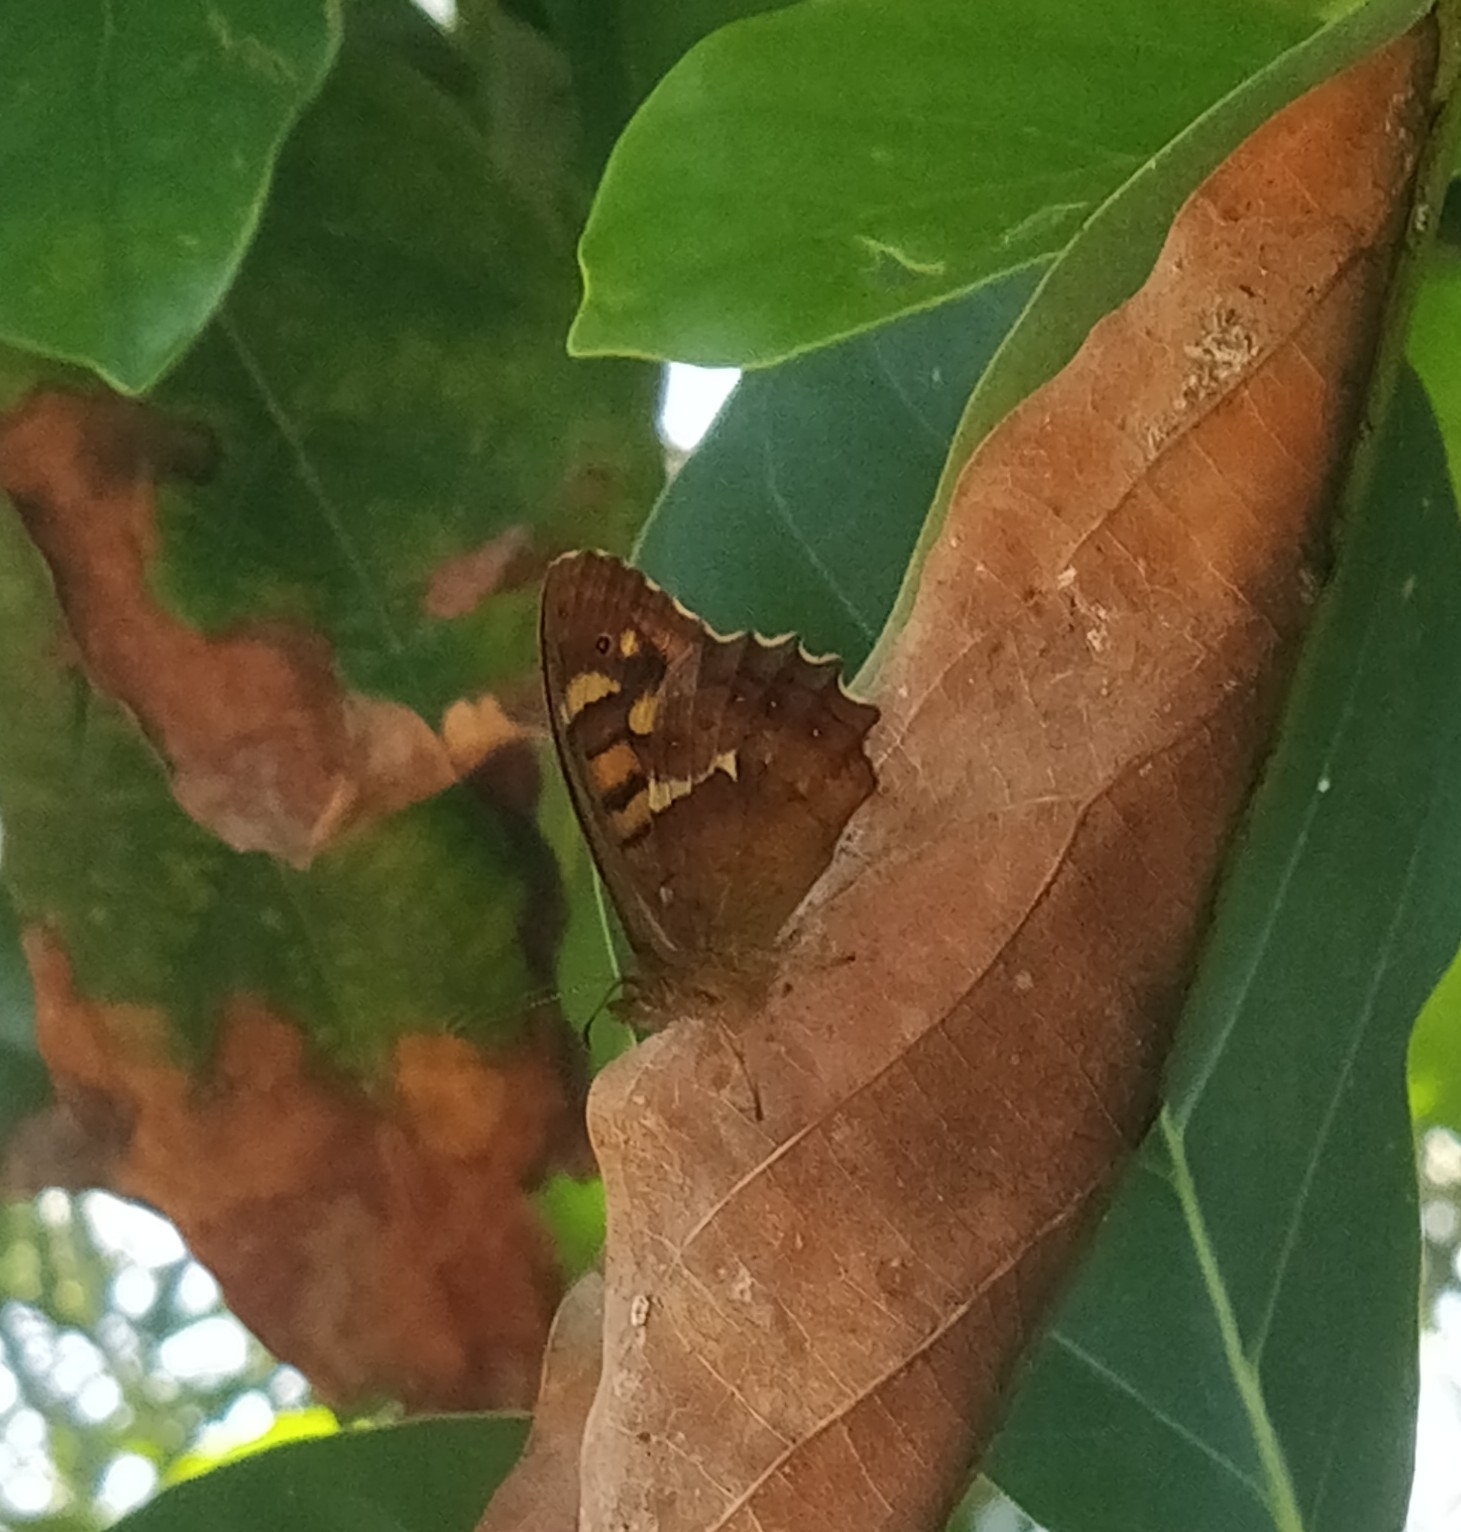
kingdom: Animalia
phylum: Arthropoda
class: Insecta
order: Lepidoptera
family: Nymphalidae
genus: Pararge
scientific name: Pararge aegeria
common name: Speckled wood
